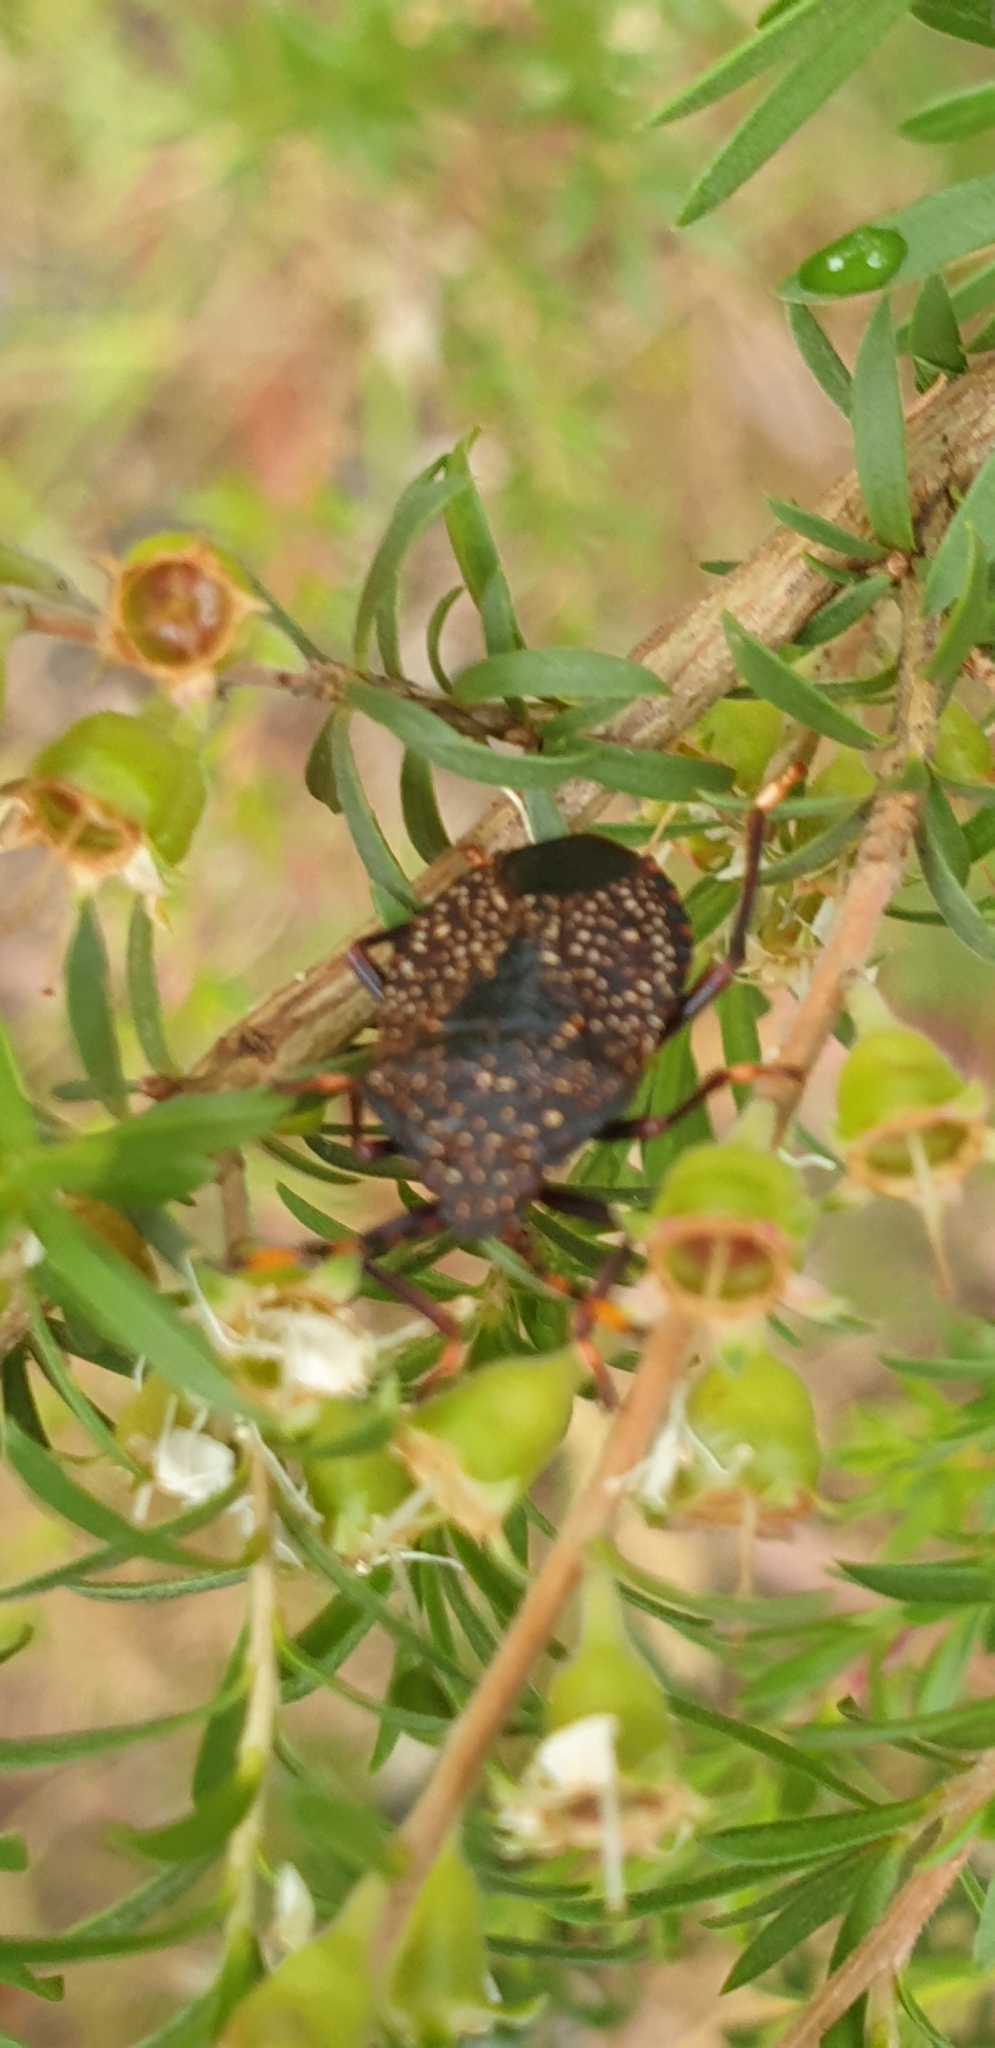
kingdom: Animalia
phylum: Arthropoda
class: Insecta
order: Hemiptera
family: Pentatomidae
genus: Notius
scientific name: Notius
